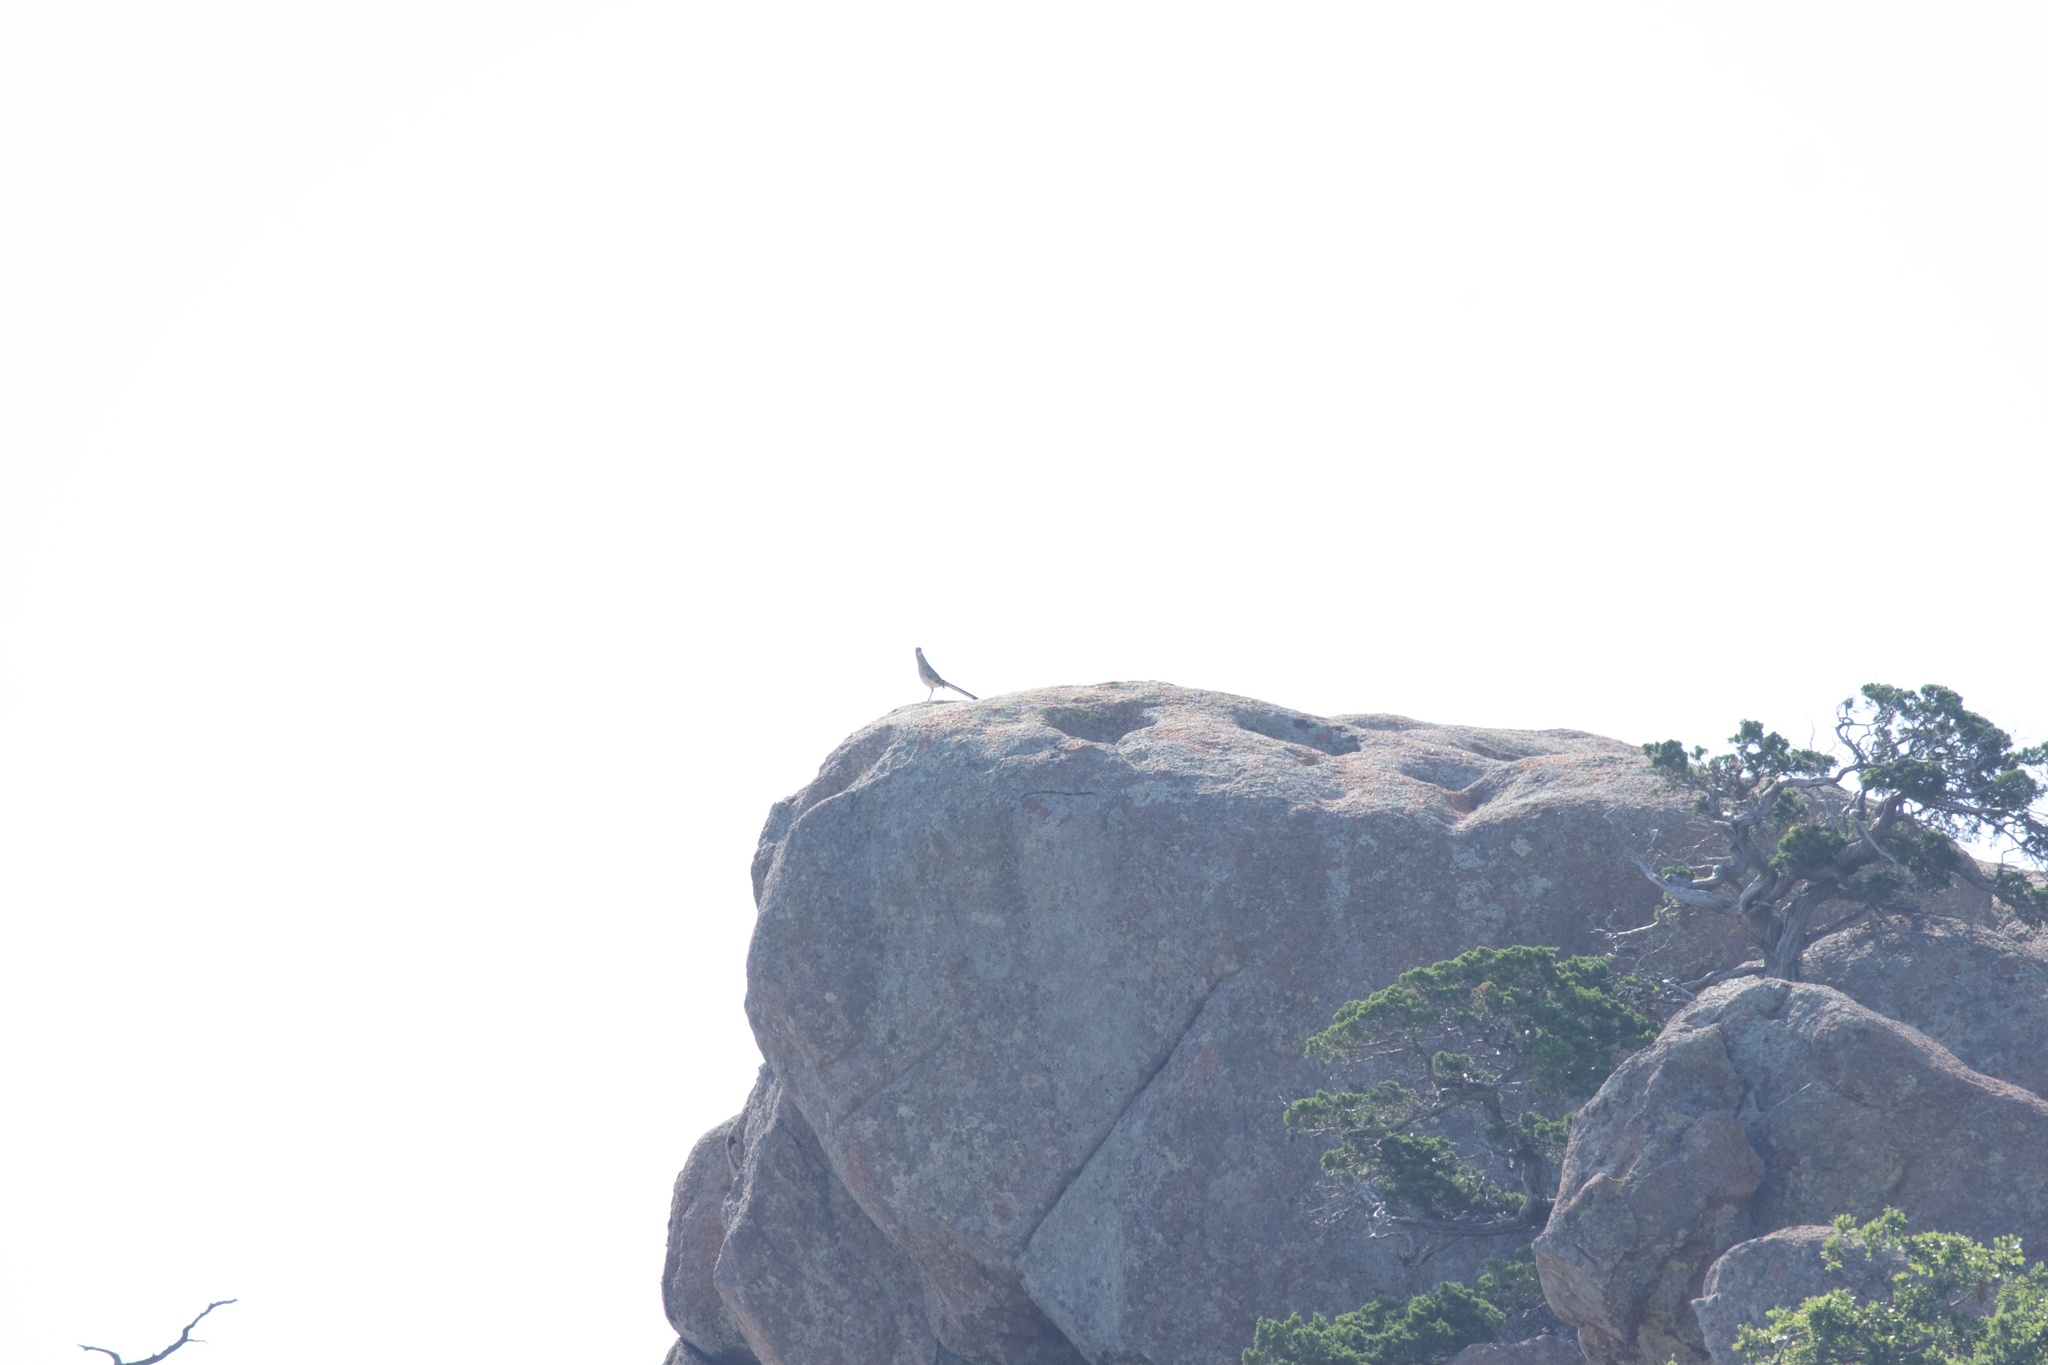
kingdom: Animalia
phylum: Chordata
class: Aves
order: Cuculiformes
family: Cuculidae
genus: Geococcyx
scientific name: Geococcyx californianus
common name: Greater roadrunner
